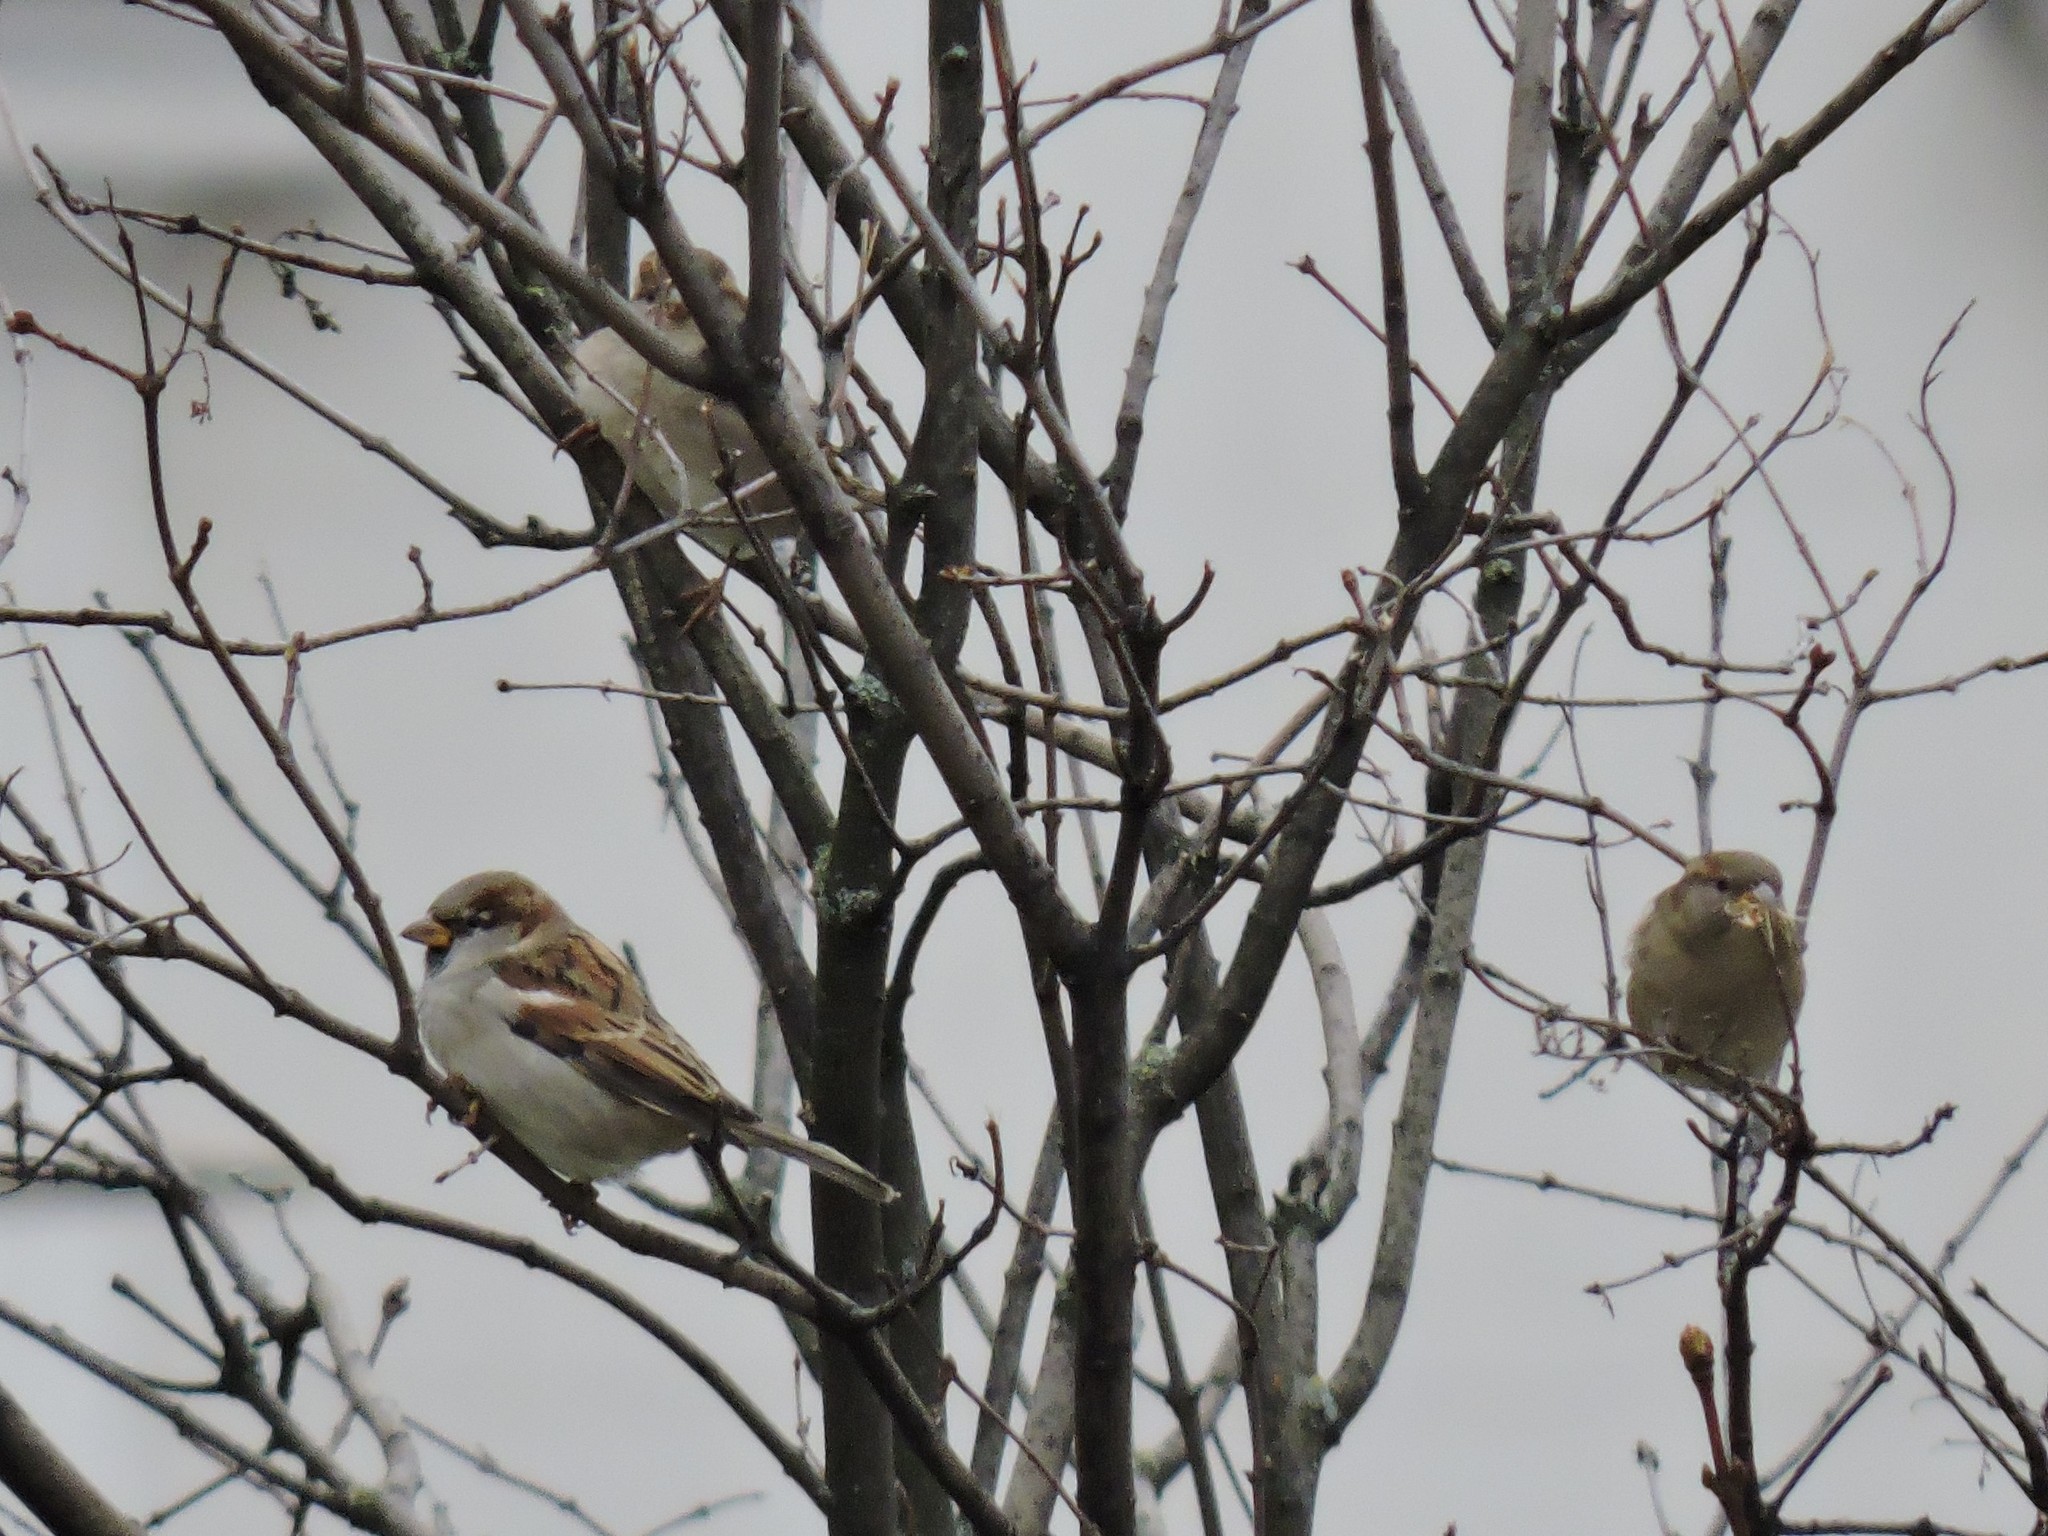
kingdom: Animalia
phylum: Chordata
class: Aves
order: Passeriformes
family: Passeridae
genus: Passer
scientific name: Passer domesticus
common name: House sparrow
